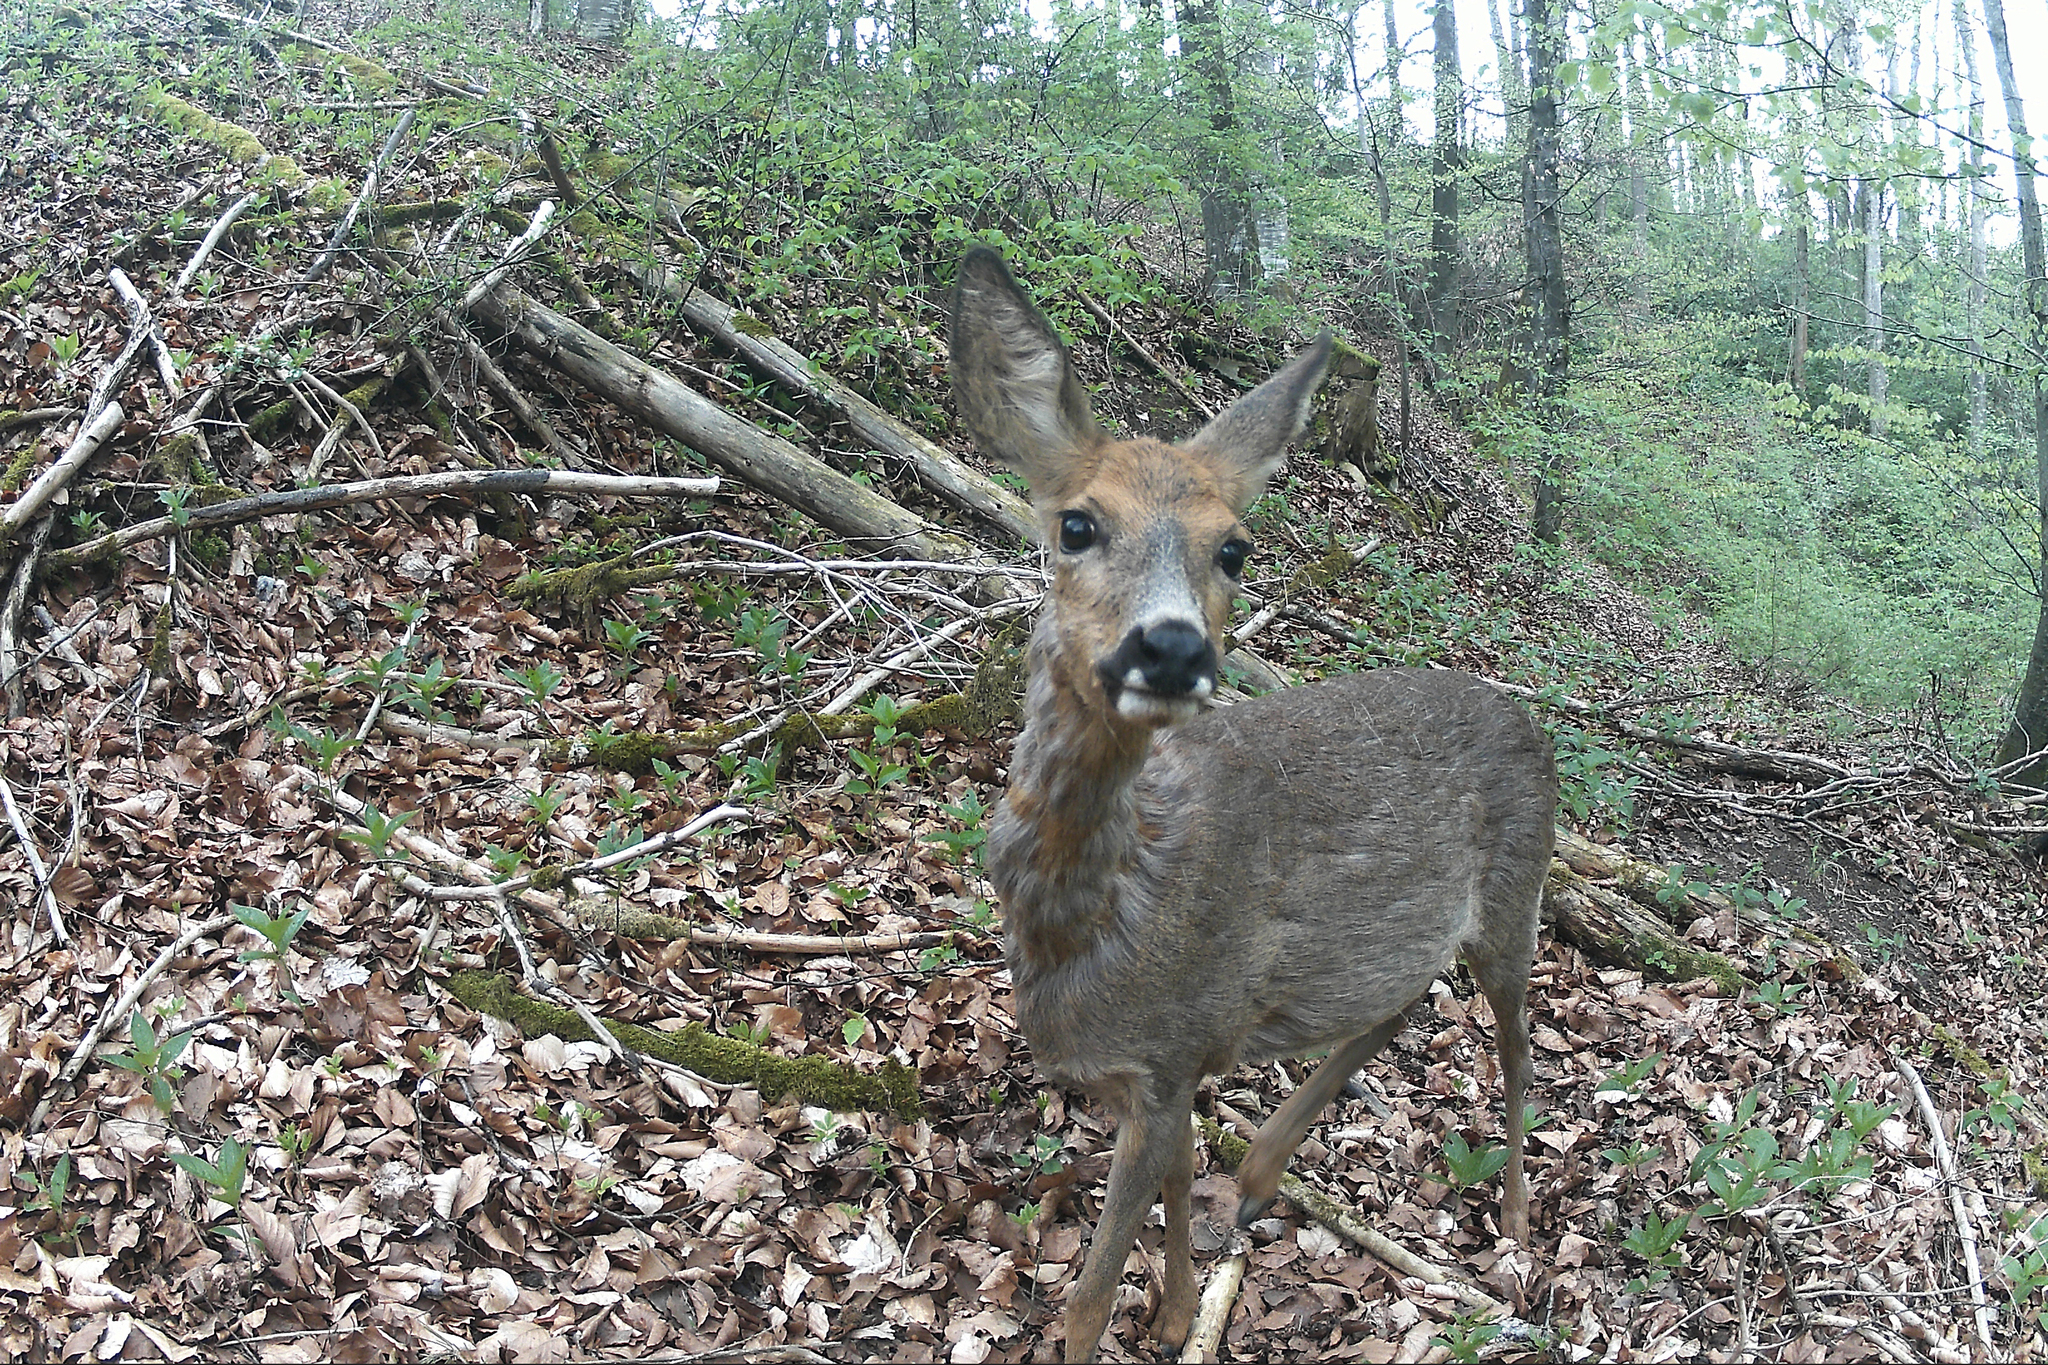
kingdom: Animalia
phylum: Chordata
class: Mammalia
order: Artiodactyla
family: Cervidae
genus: Capreolus
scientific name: Capreolus capreolus
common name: Western roe deer
